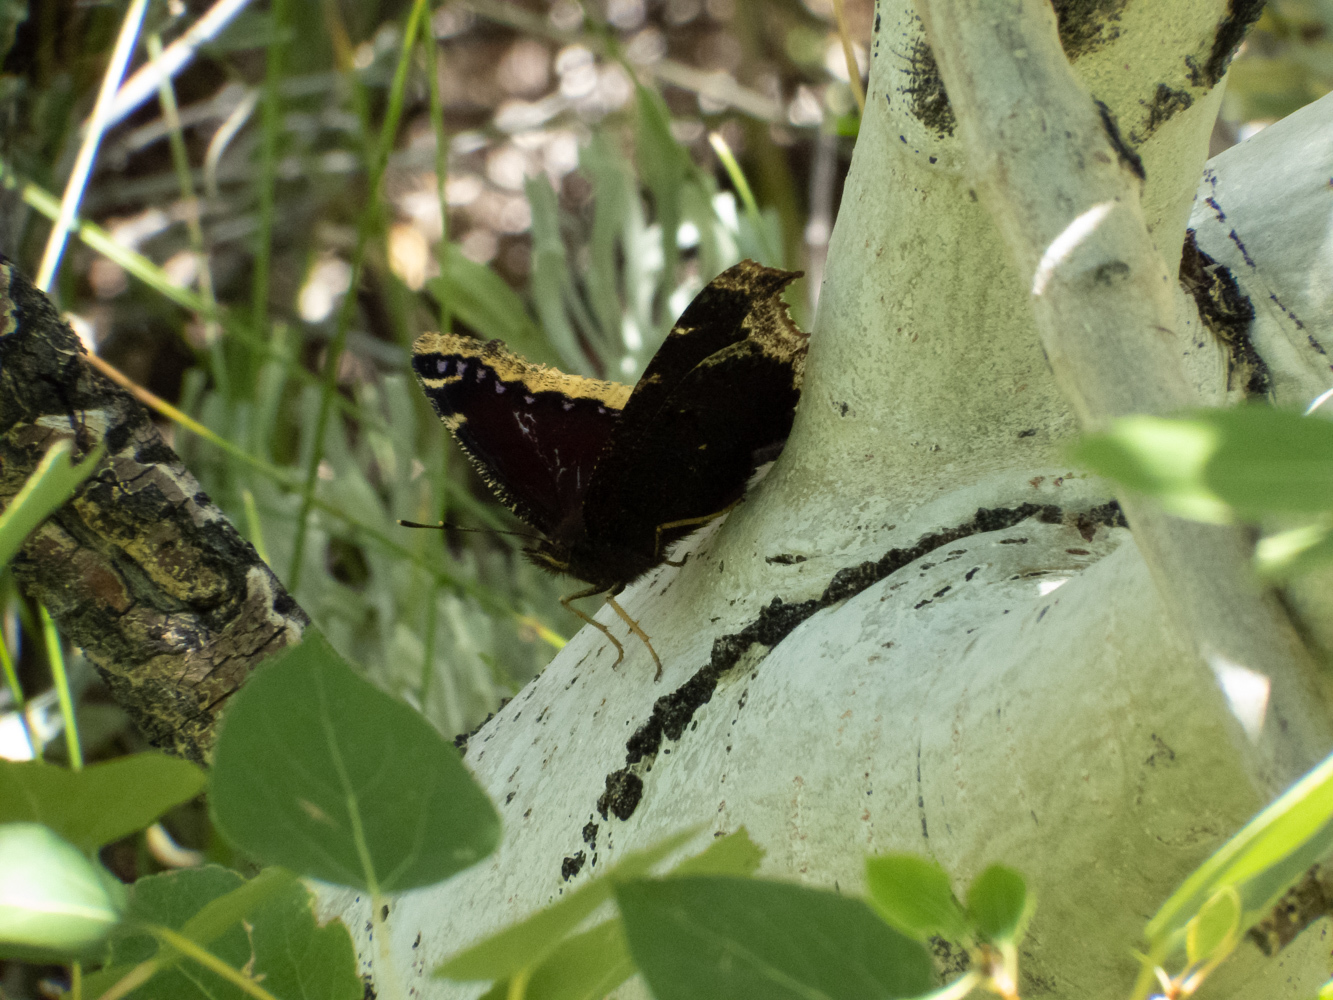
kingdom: Animalia
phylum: Arthropoda
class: Insecta
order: Lepidoptera
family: Nymphalidae
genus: Nymphalis
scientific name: Nymphalis antiopa
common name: Camberwell beauty
